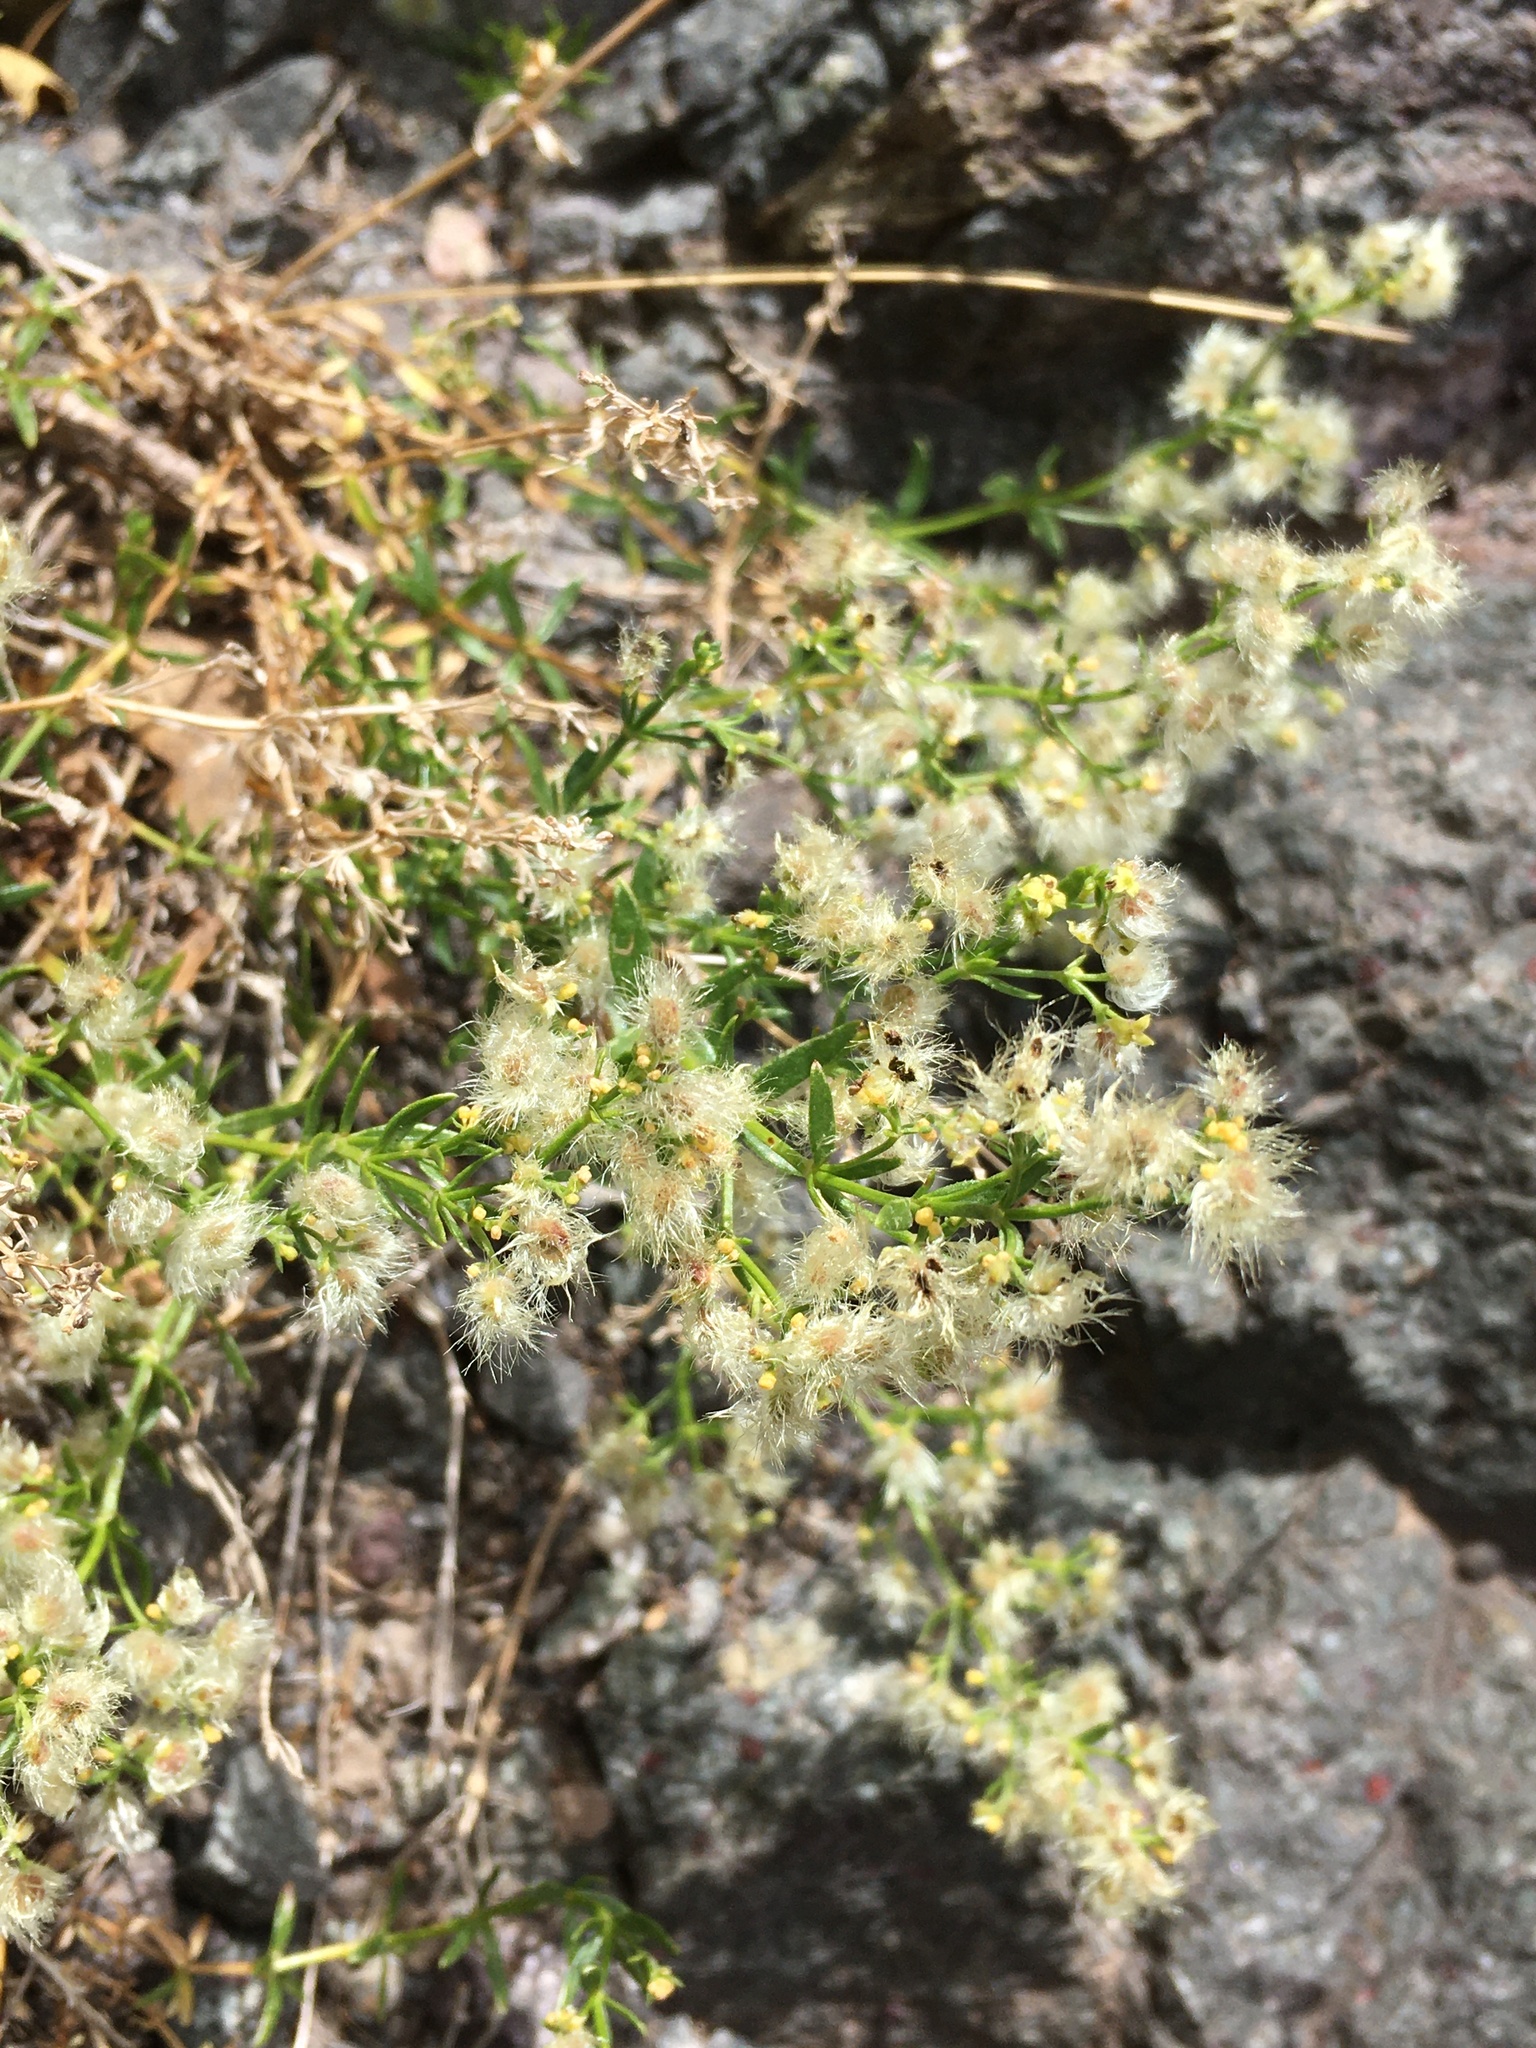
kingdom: Plantae
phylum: Tracheophyta
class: Magnoliopsida
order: Gentianales
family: Rubiaceae
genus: Galium
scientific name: Galium eriocarpum
